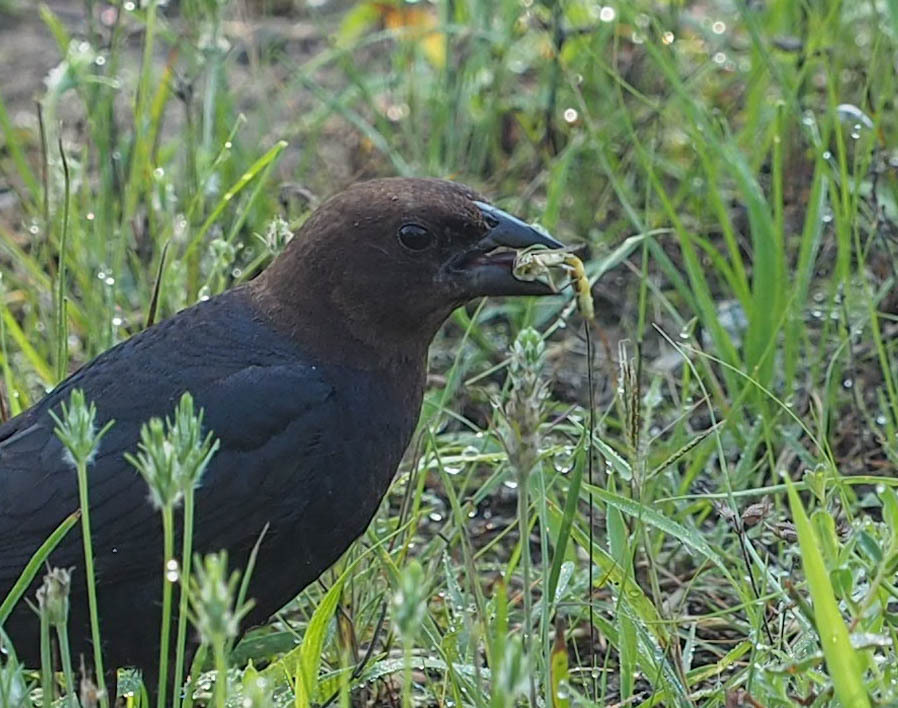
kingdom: Animalia
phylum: Chordata
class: Aves
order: Passeriformes
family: Icteridae
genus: Molothrus
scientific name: Molothrus ater
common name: Brown-headed cowbird
